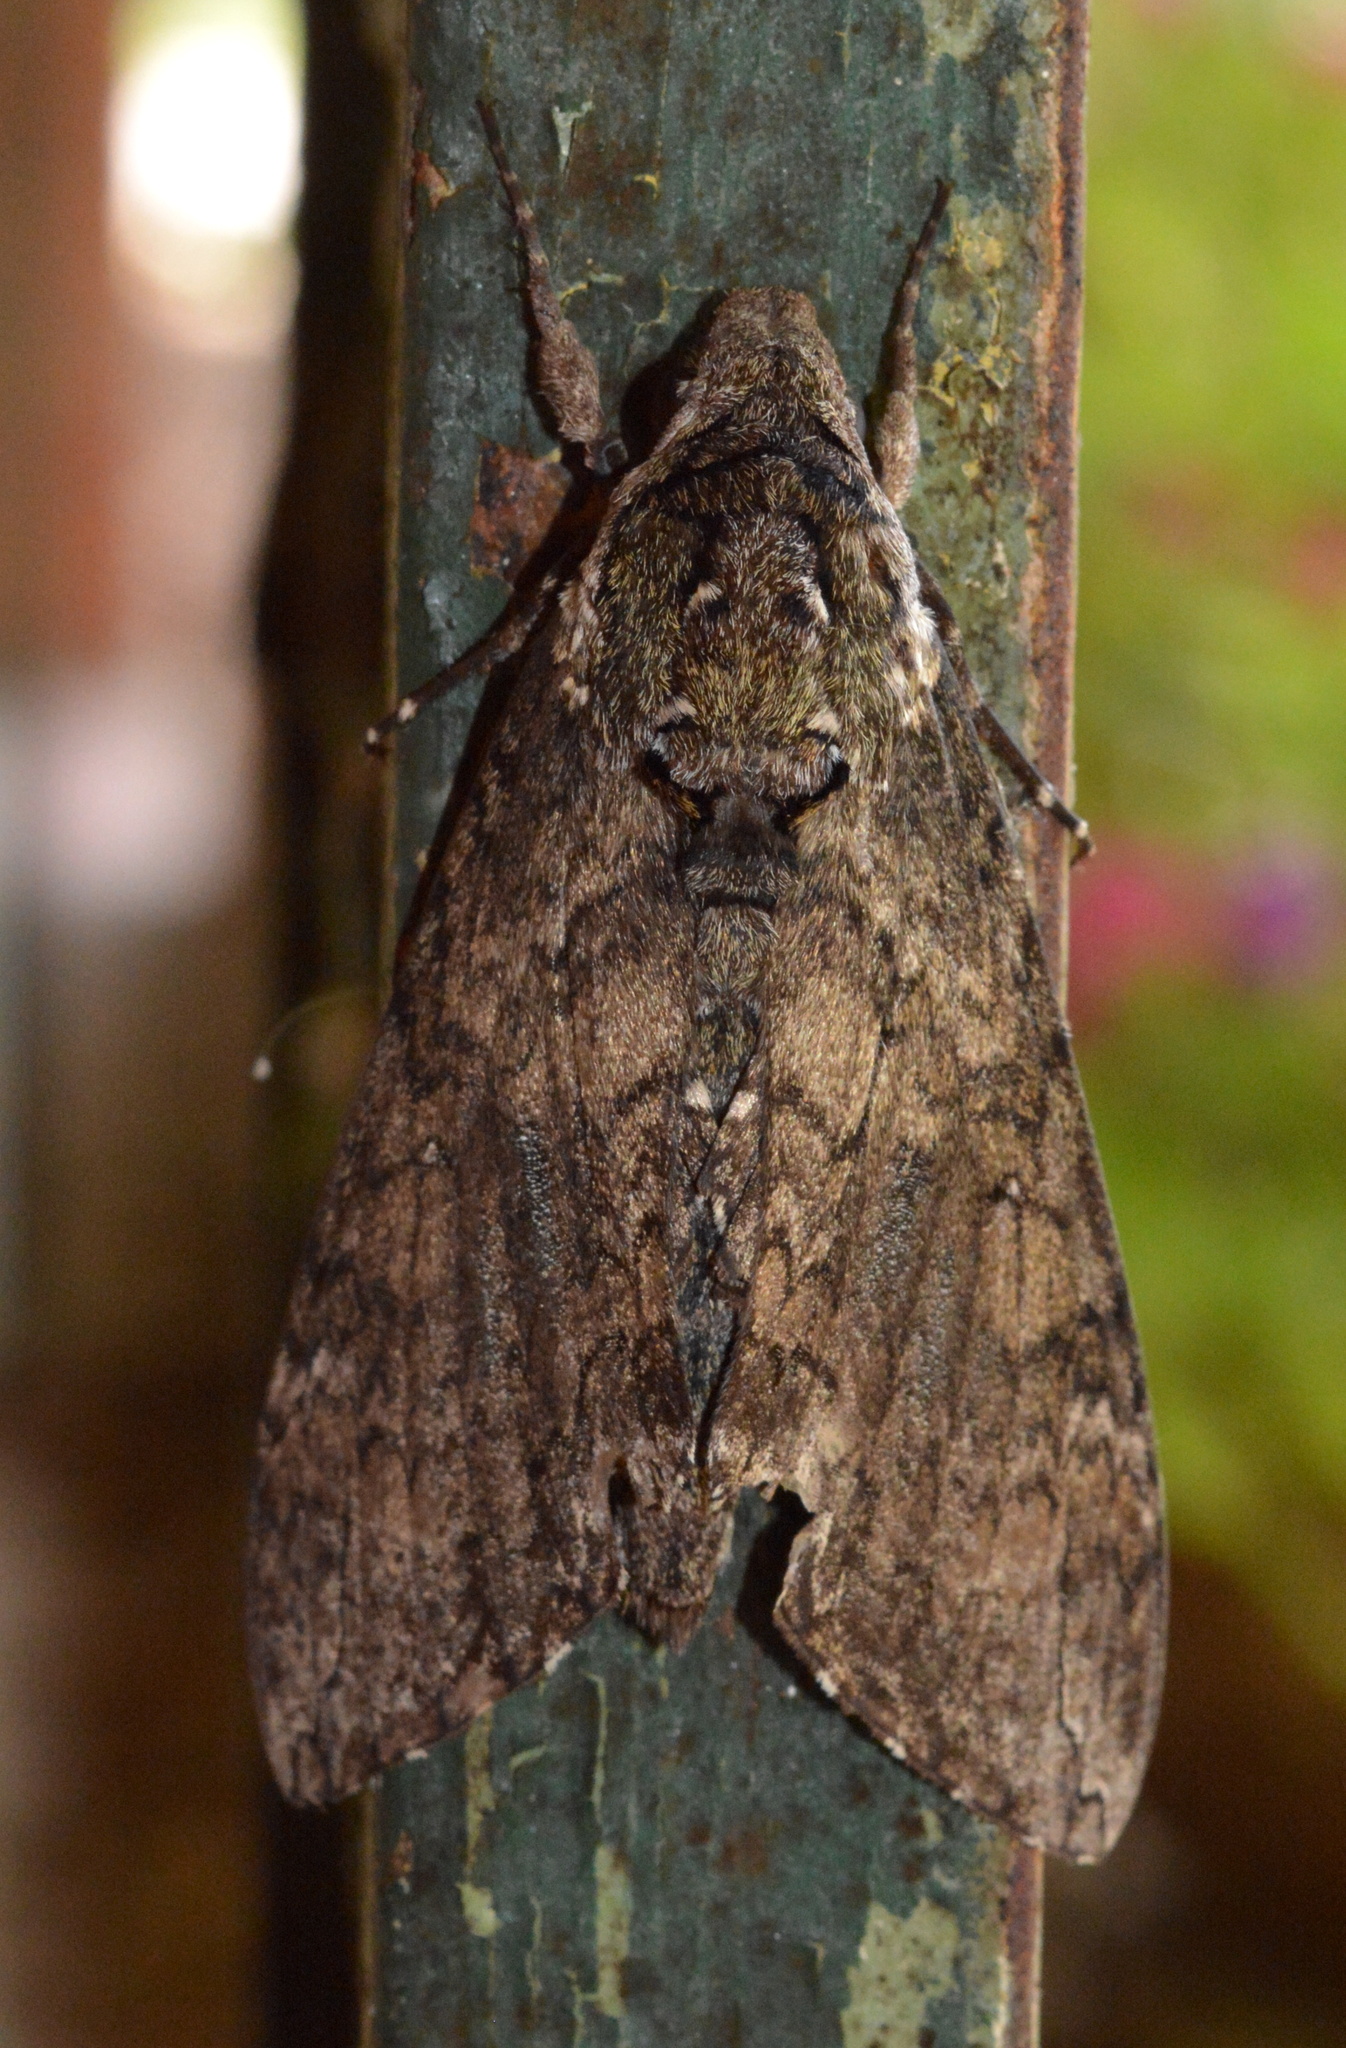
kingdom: Animalia
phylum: Arthropoda
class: Insecta
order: Lepidoptera
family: Sphingidae
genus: Manduca
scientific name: Manduca sexta
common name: Carolina sphinx
